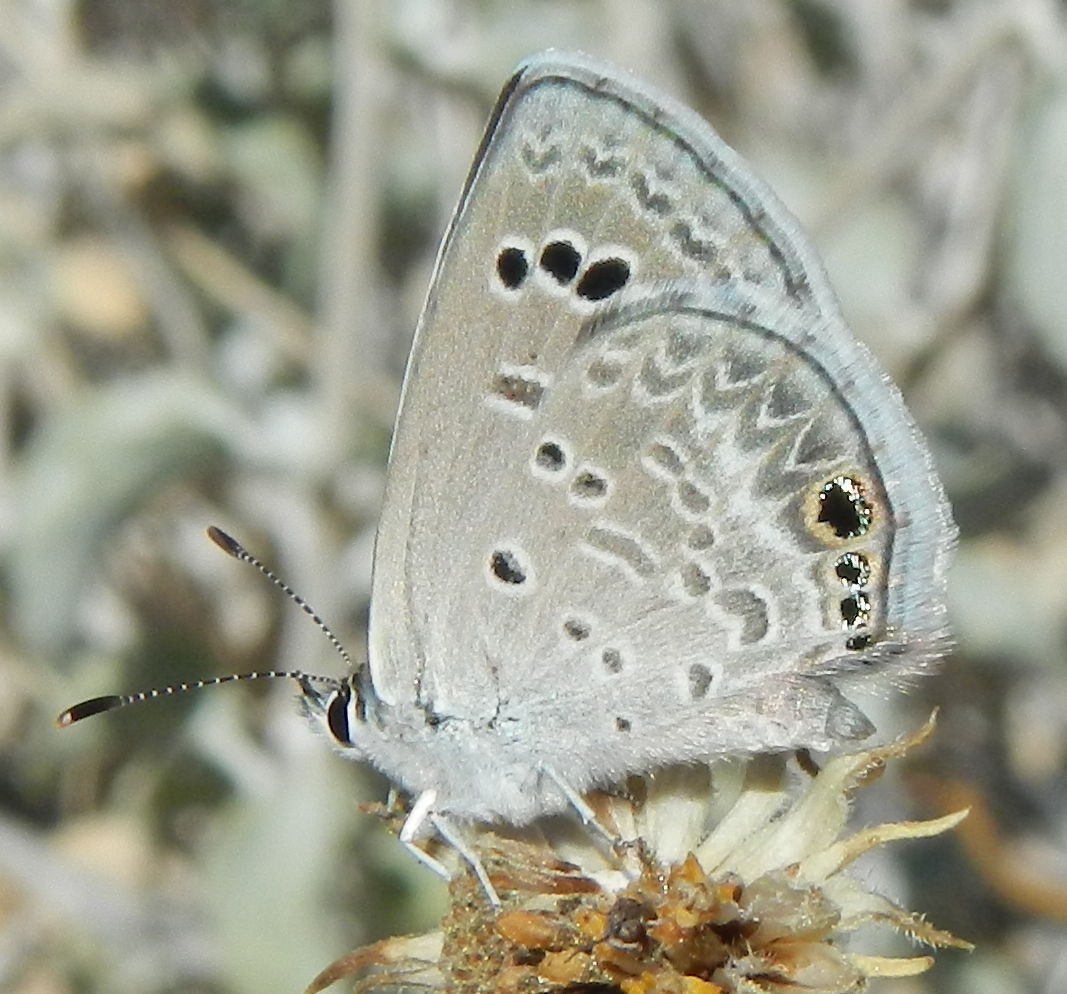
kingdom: Animalia
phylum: Arthropoda
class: Insecta
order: Lepidoptera
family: Lycaenidae
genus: Echinargus
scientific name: Echinargus isola
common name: Reakirt's blue
